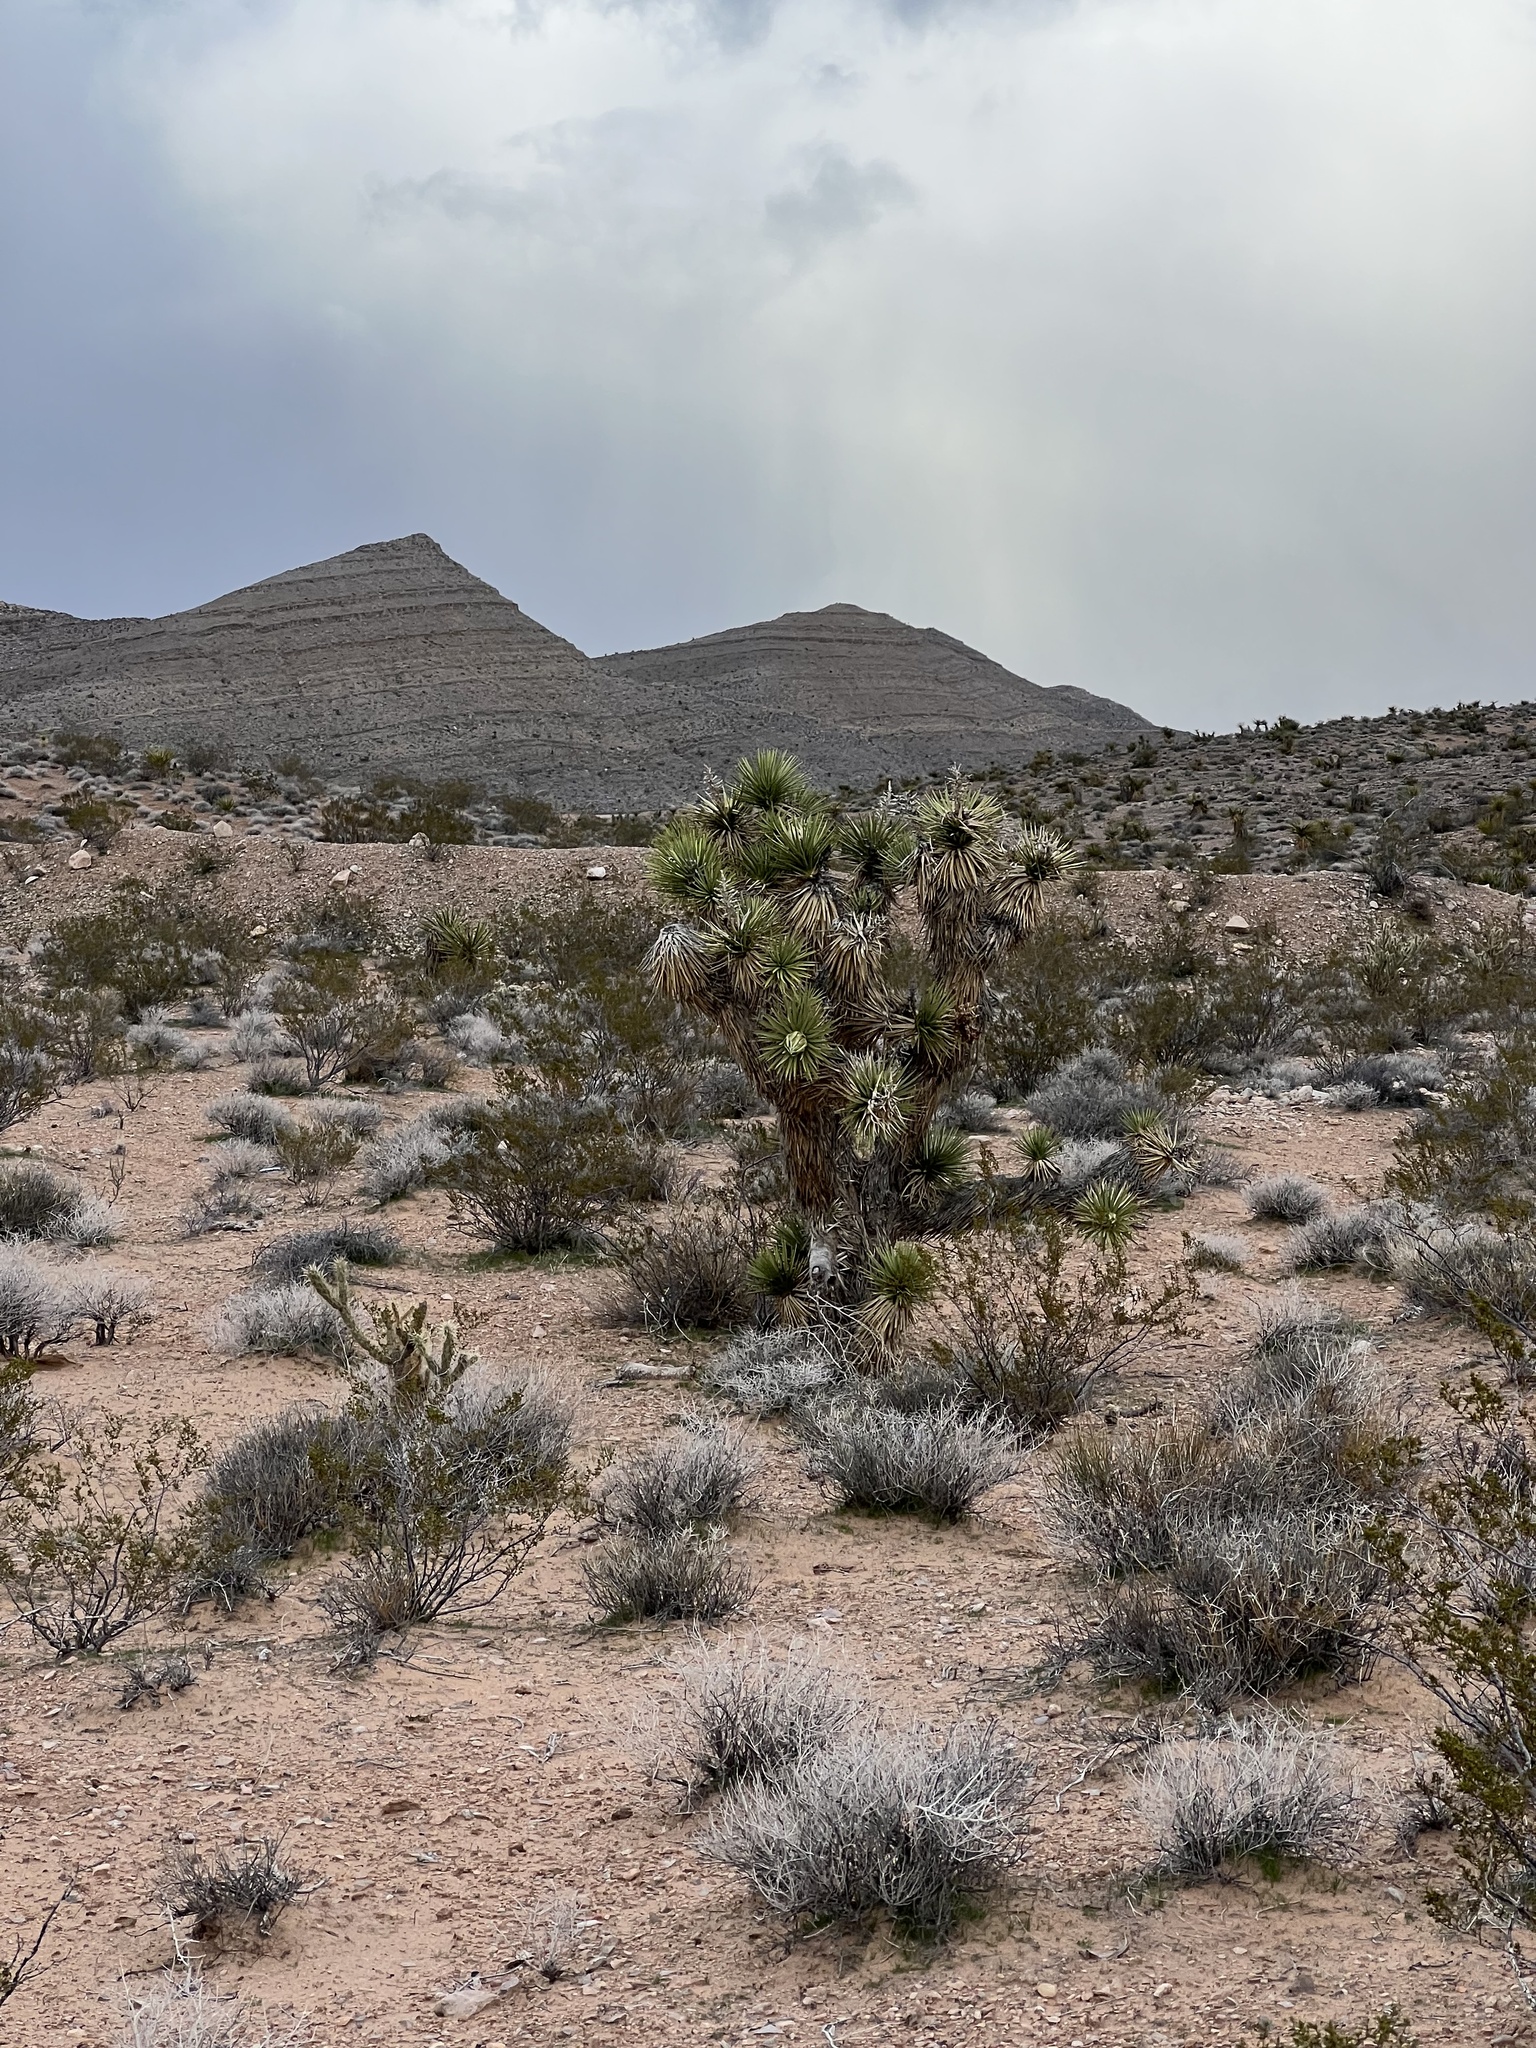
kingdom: Plantae
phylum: Tracheophyta
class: Liliopsida
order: Asparagales
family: Asparagaceae
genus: Yucca
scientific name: Yucca brevifolia
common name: Joshua tree
